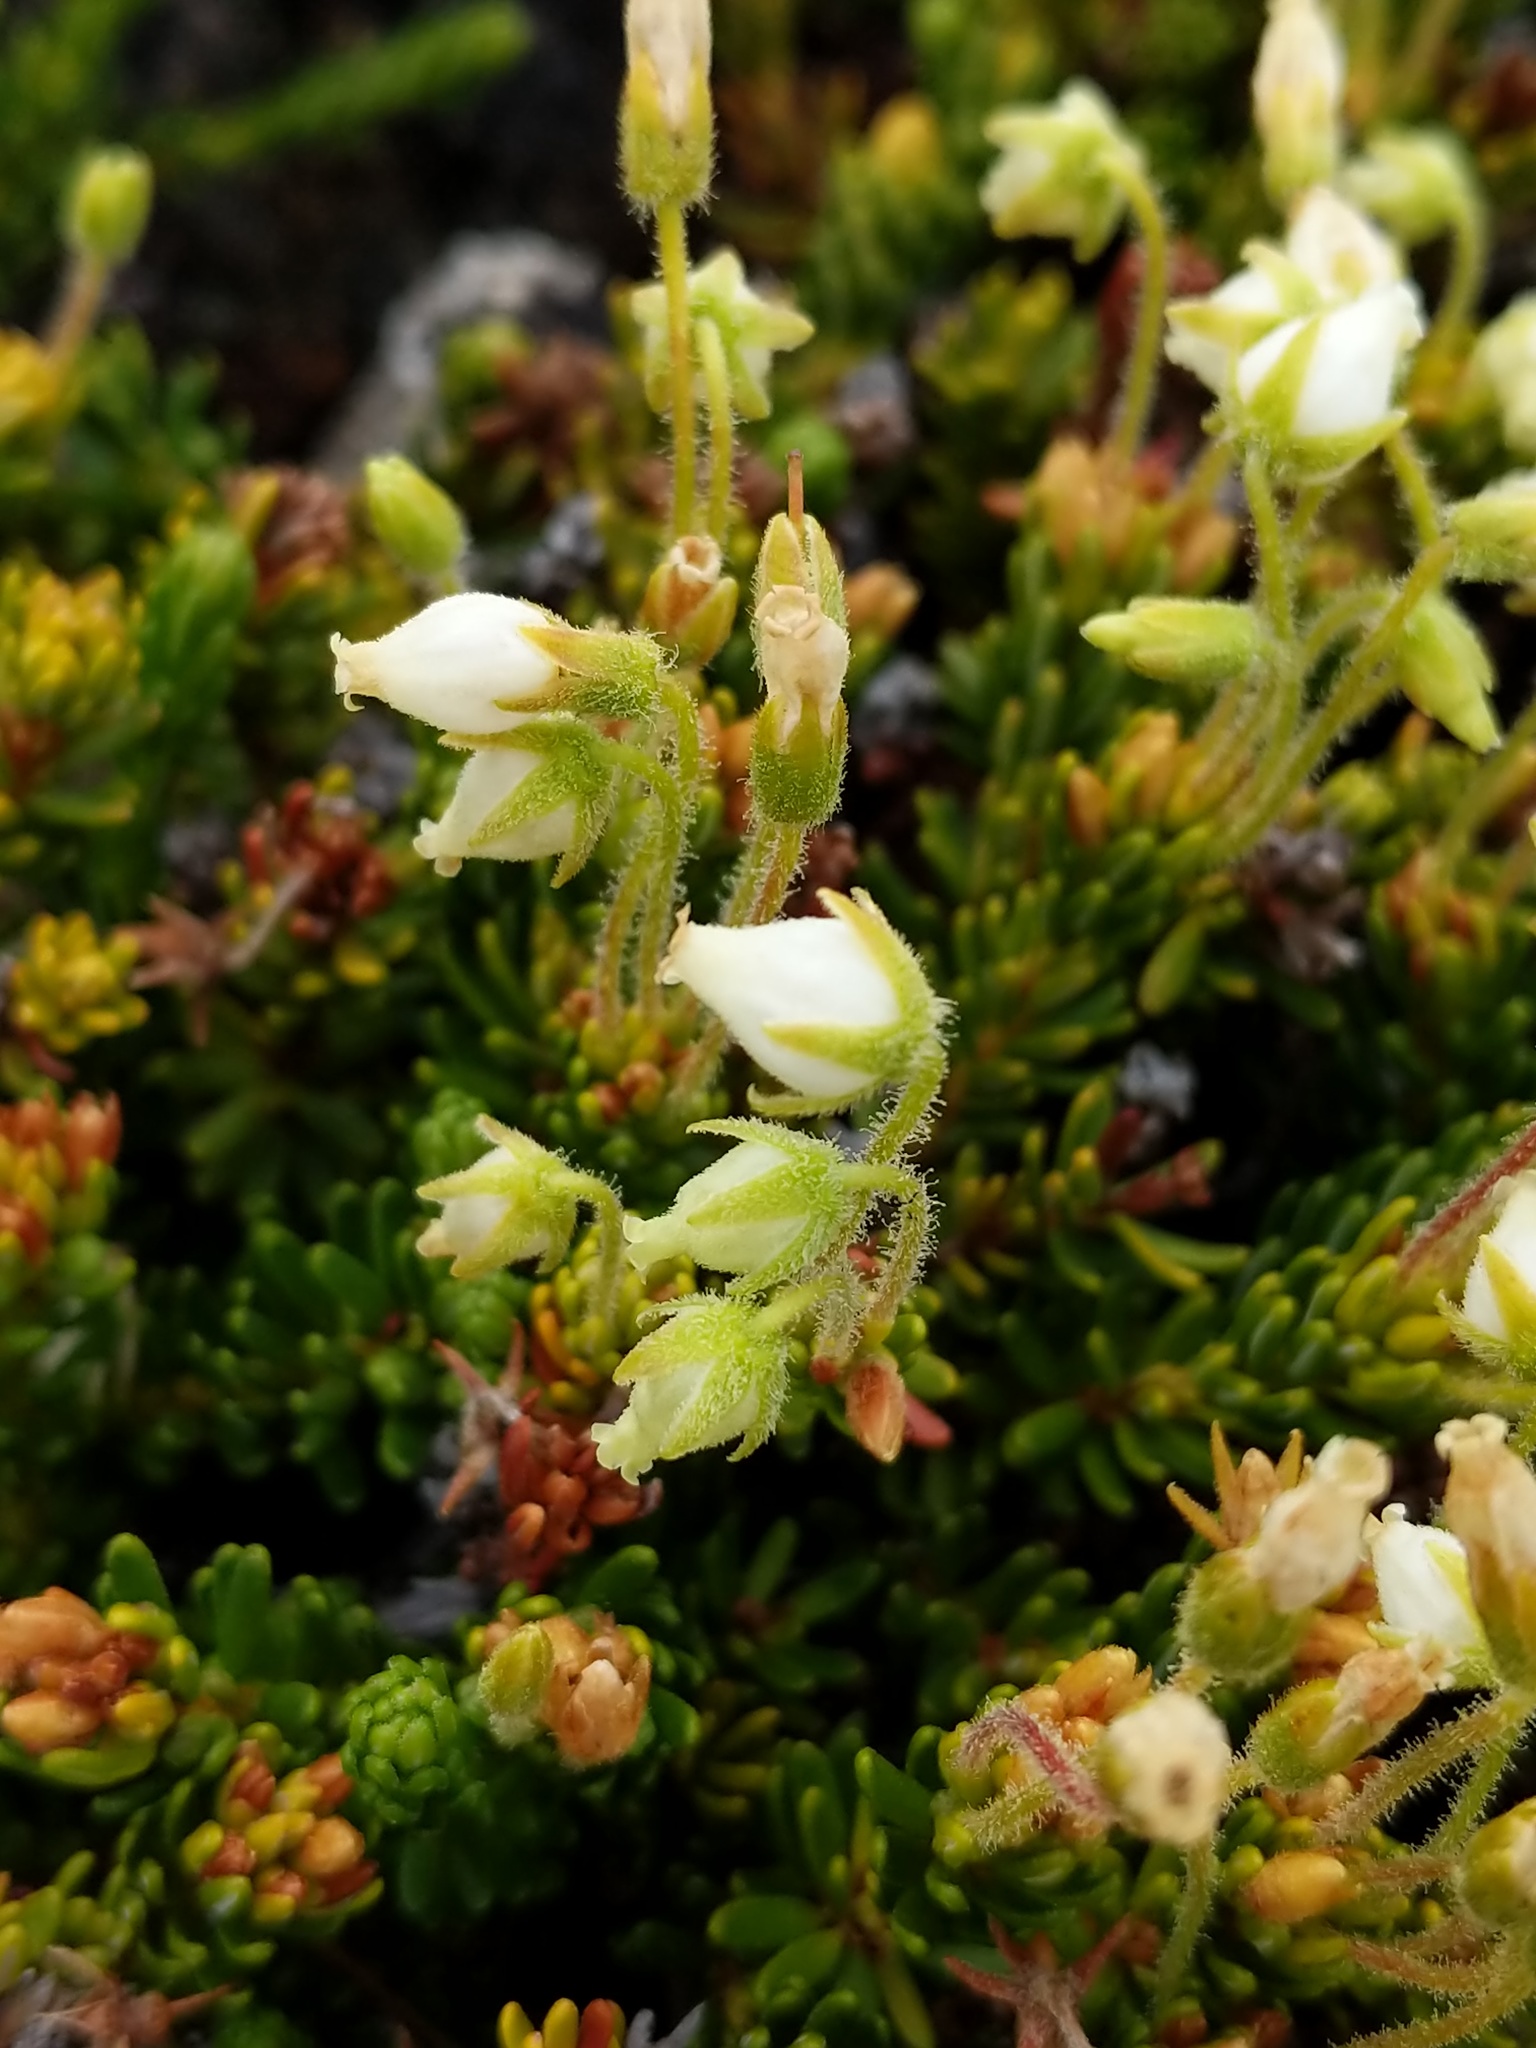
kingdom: Plantae
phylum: Tracheophyta
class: Magnoliopsida
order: Ericales
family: Ericaceae
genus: Phyllodoce
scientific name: Phyllodoce glanduliflora
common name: Cream mountain heather
